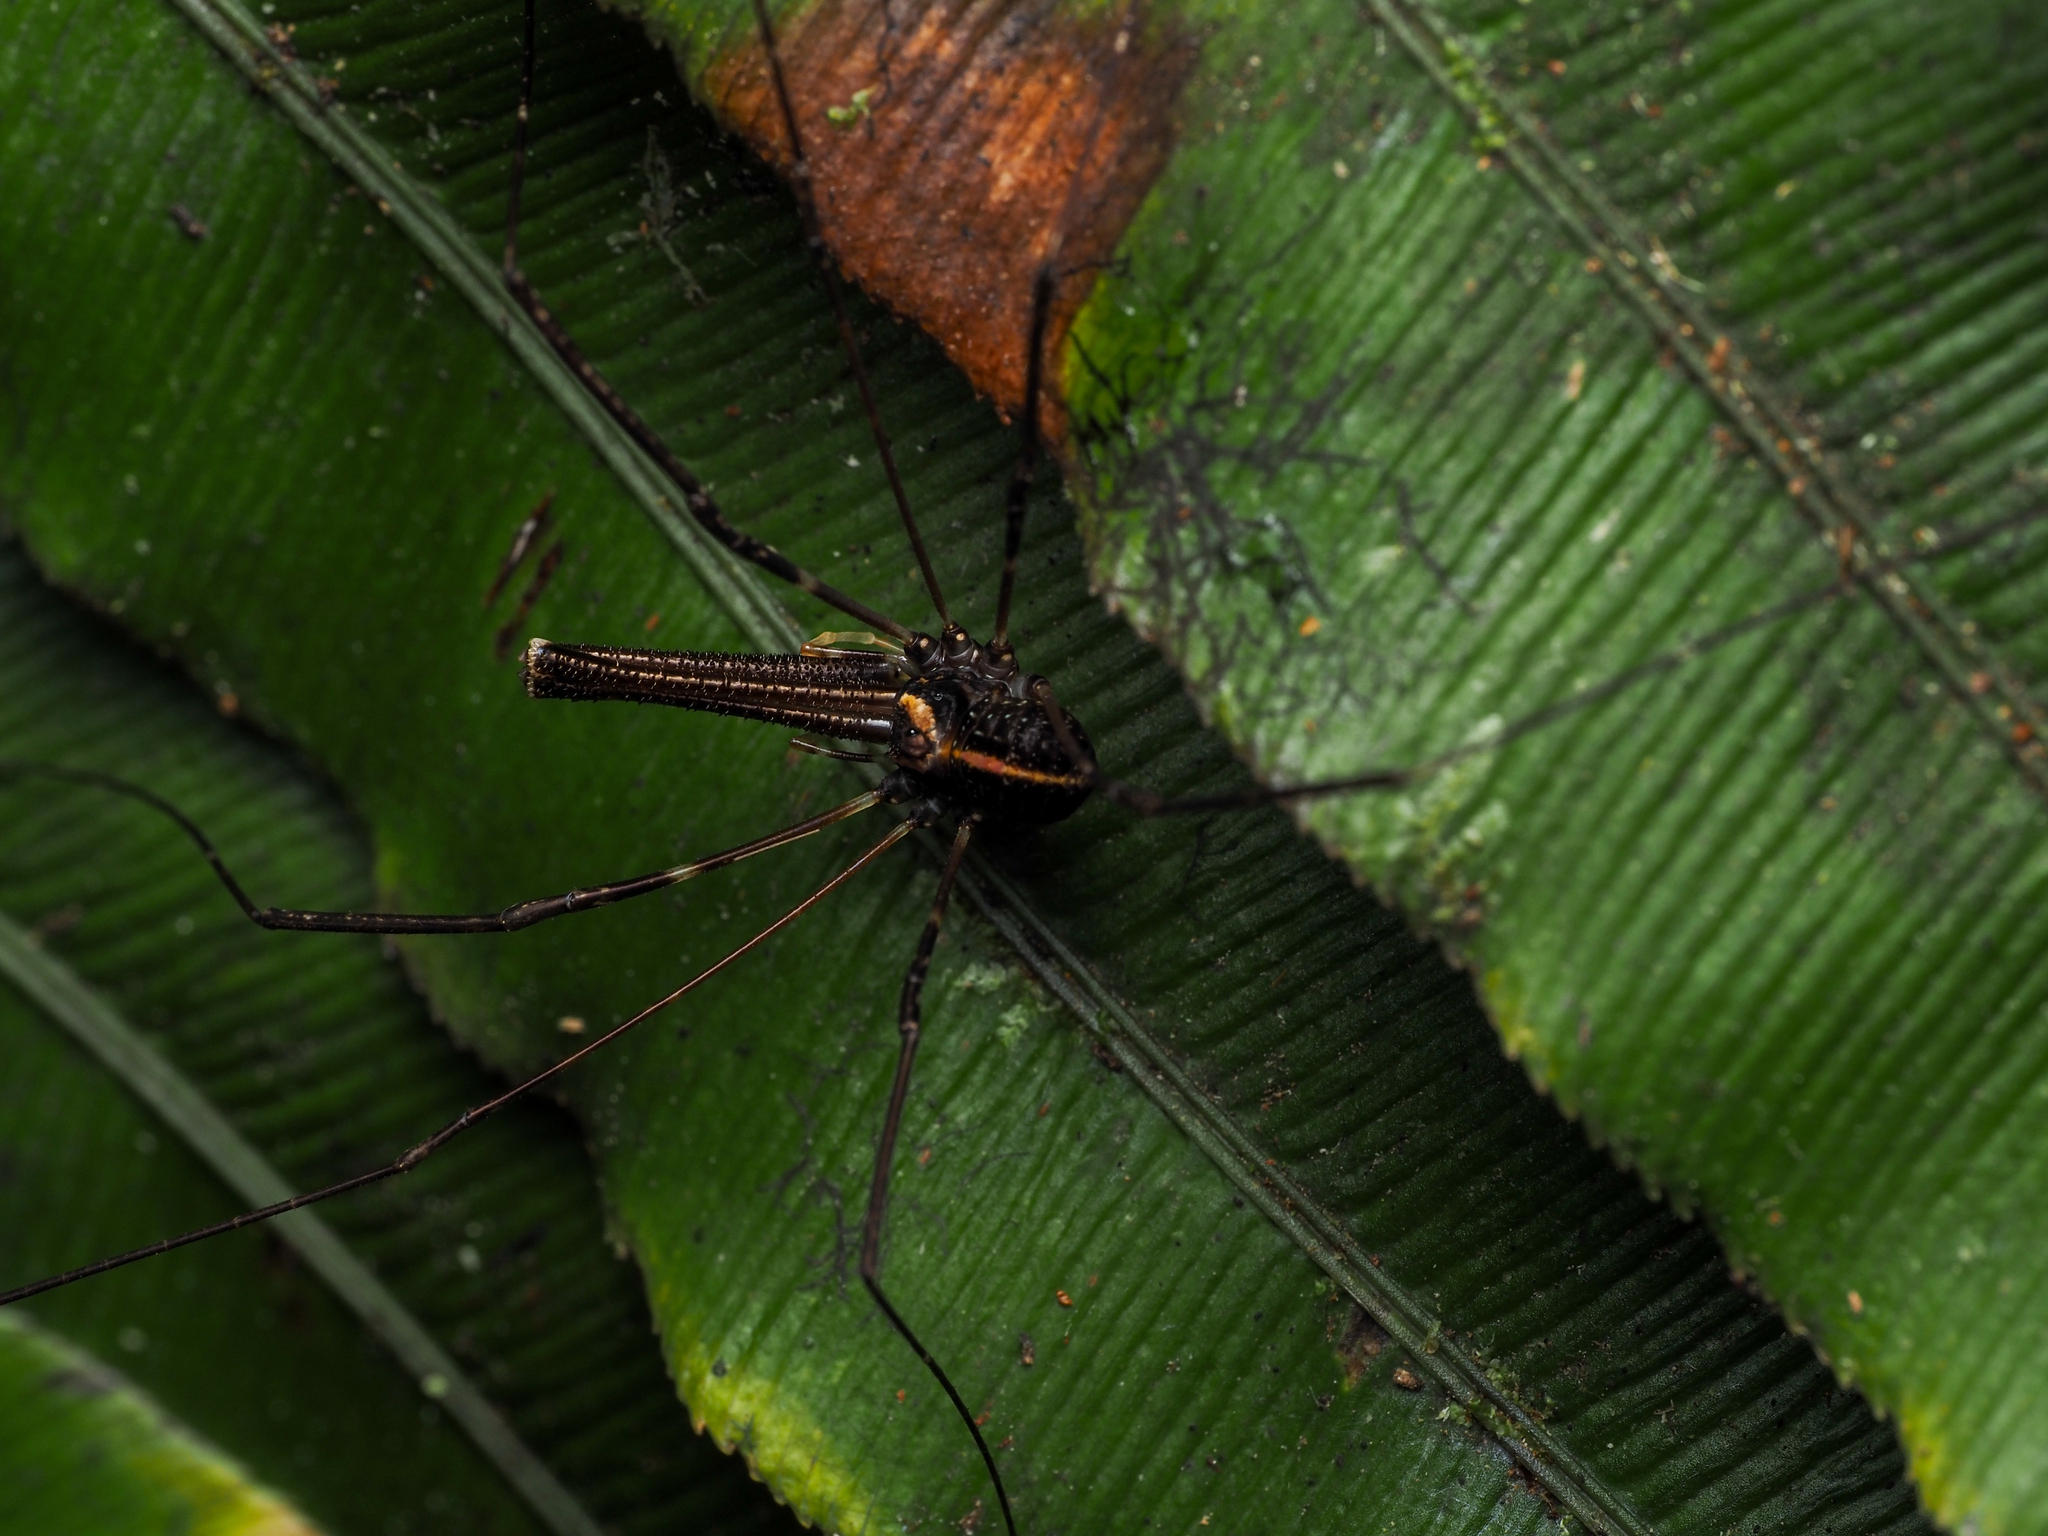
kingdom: Animalia
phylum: Arthropoda
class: Arachnida
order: Opiliones
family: Neopilionidae
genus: Forsteropsalis
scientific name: Forsteropsalis pureora
